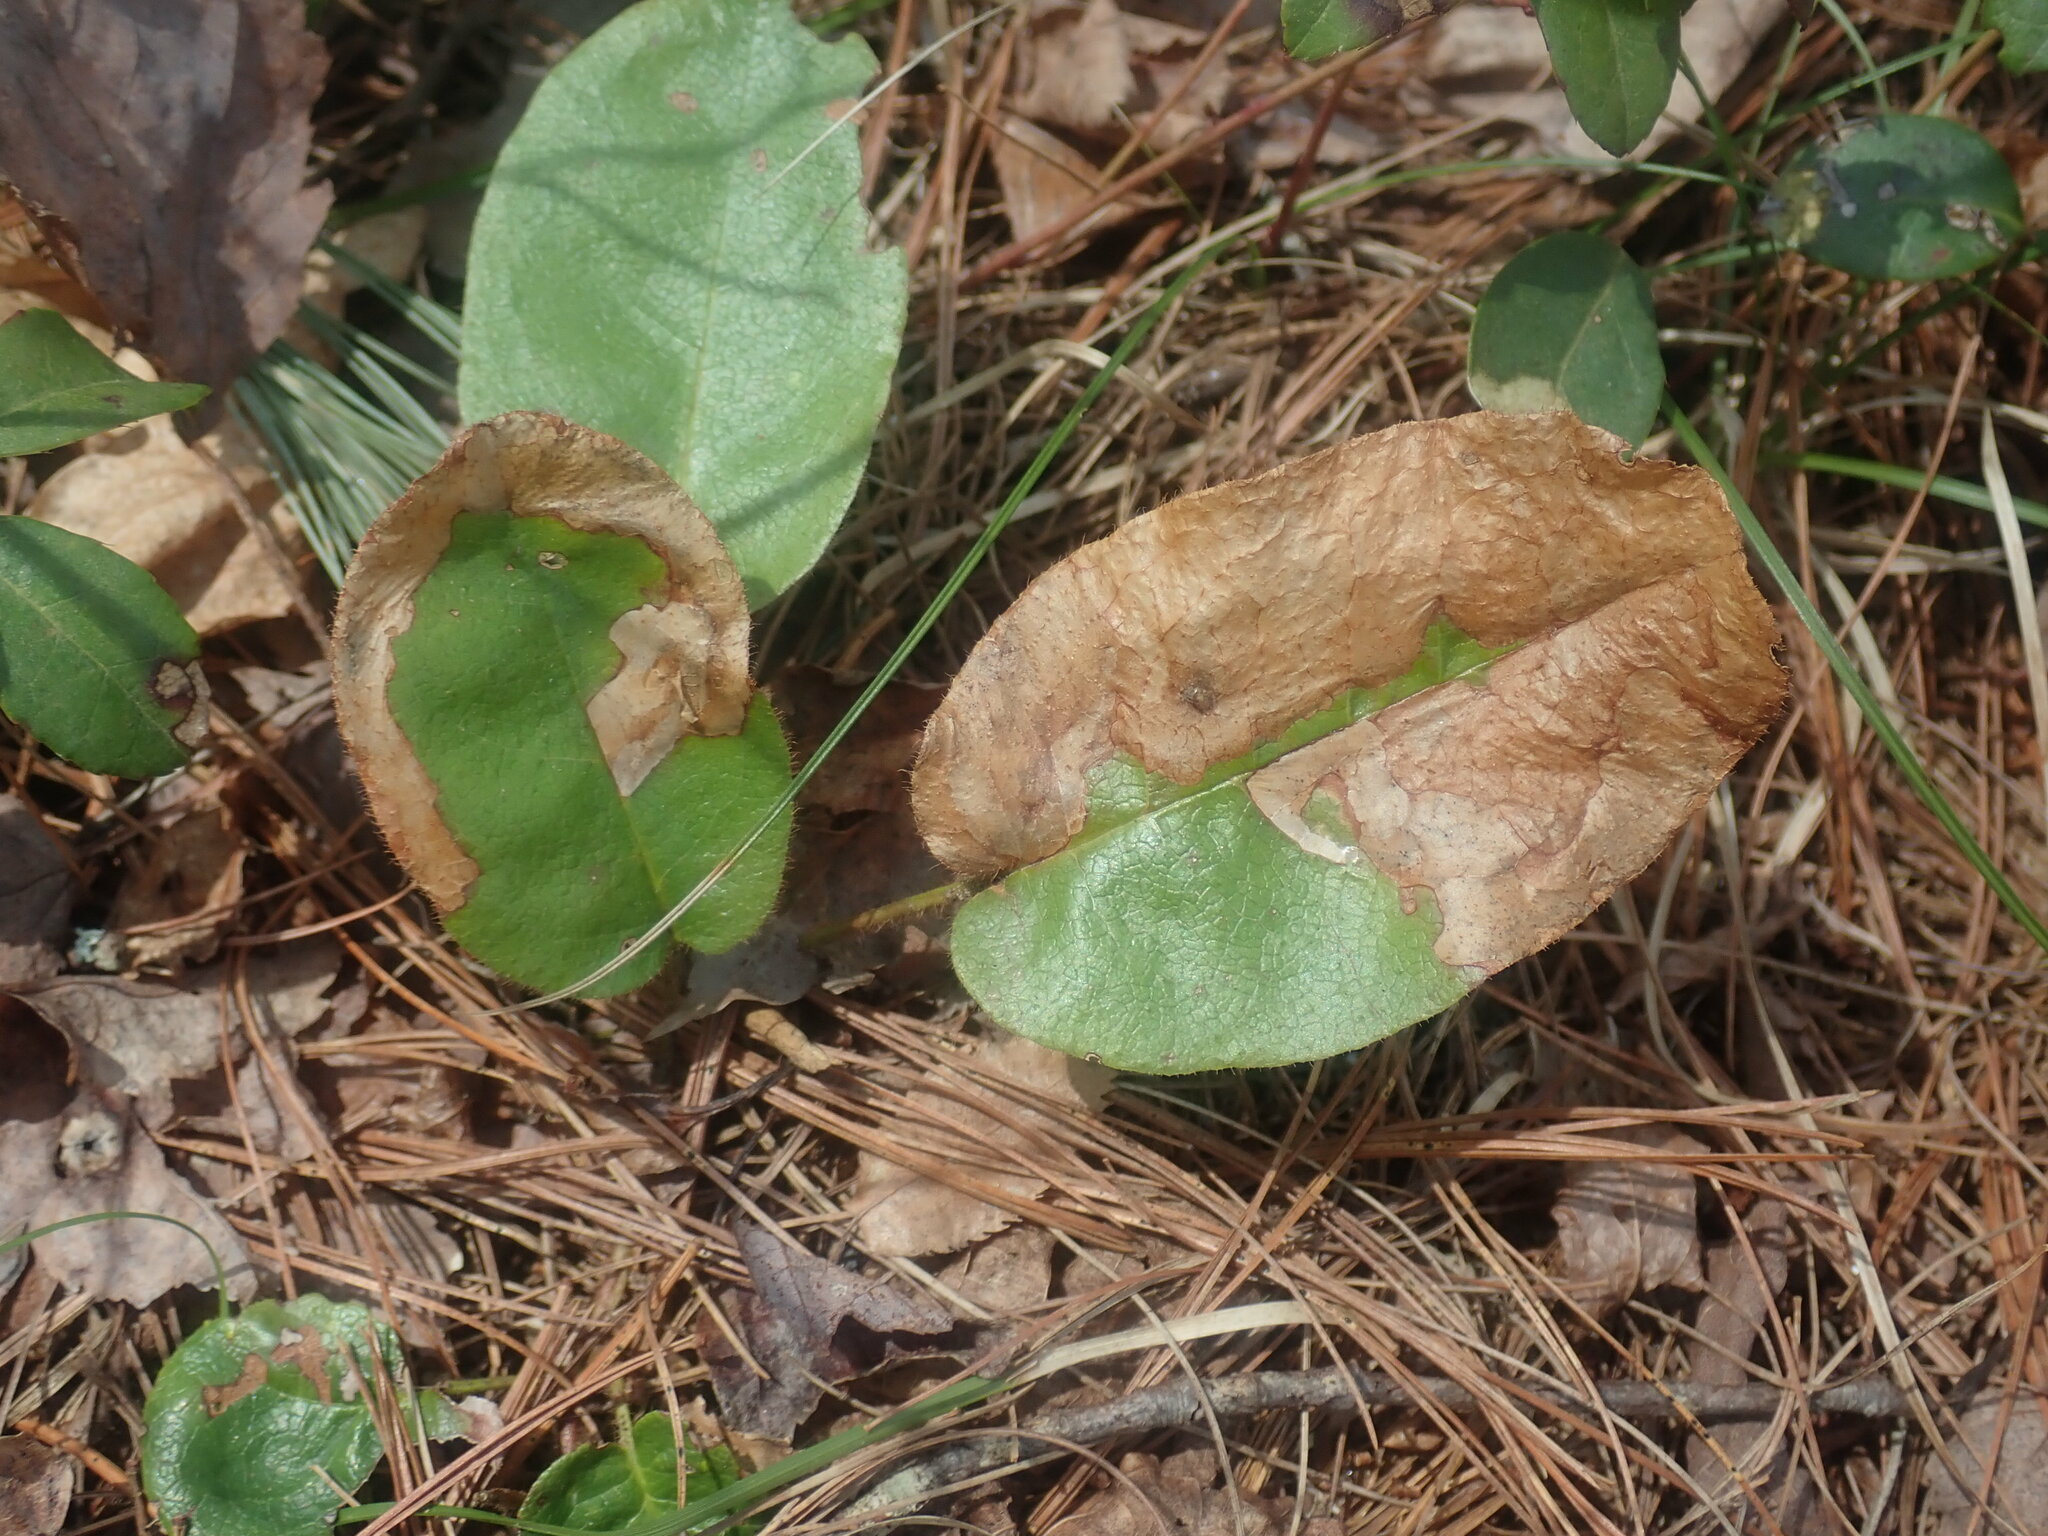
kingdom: Animalia
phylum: Arthropoda
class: Insecta
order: Coleoptera
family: Buprestidae
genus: Brachys
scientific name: Brachys
